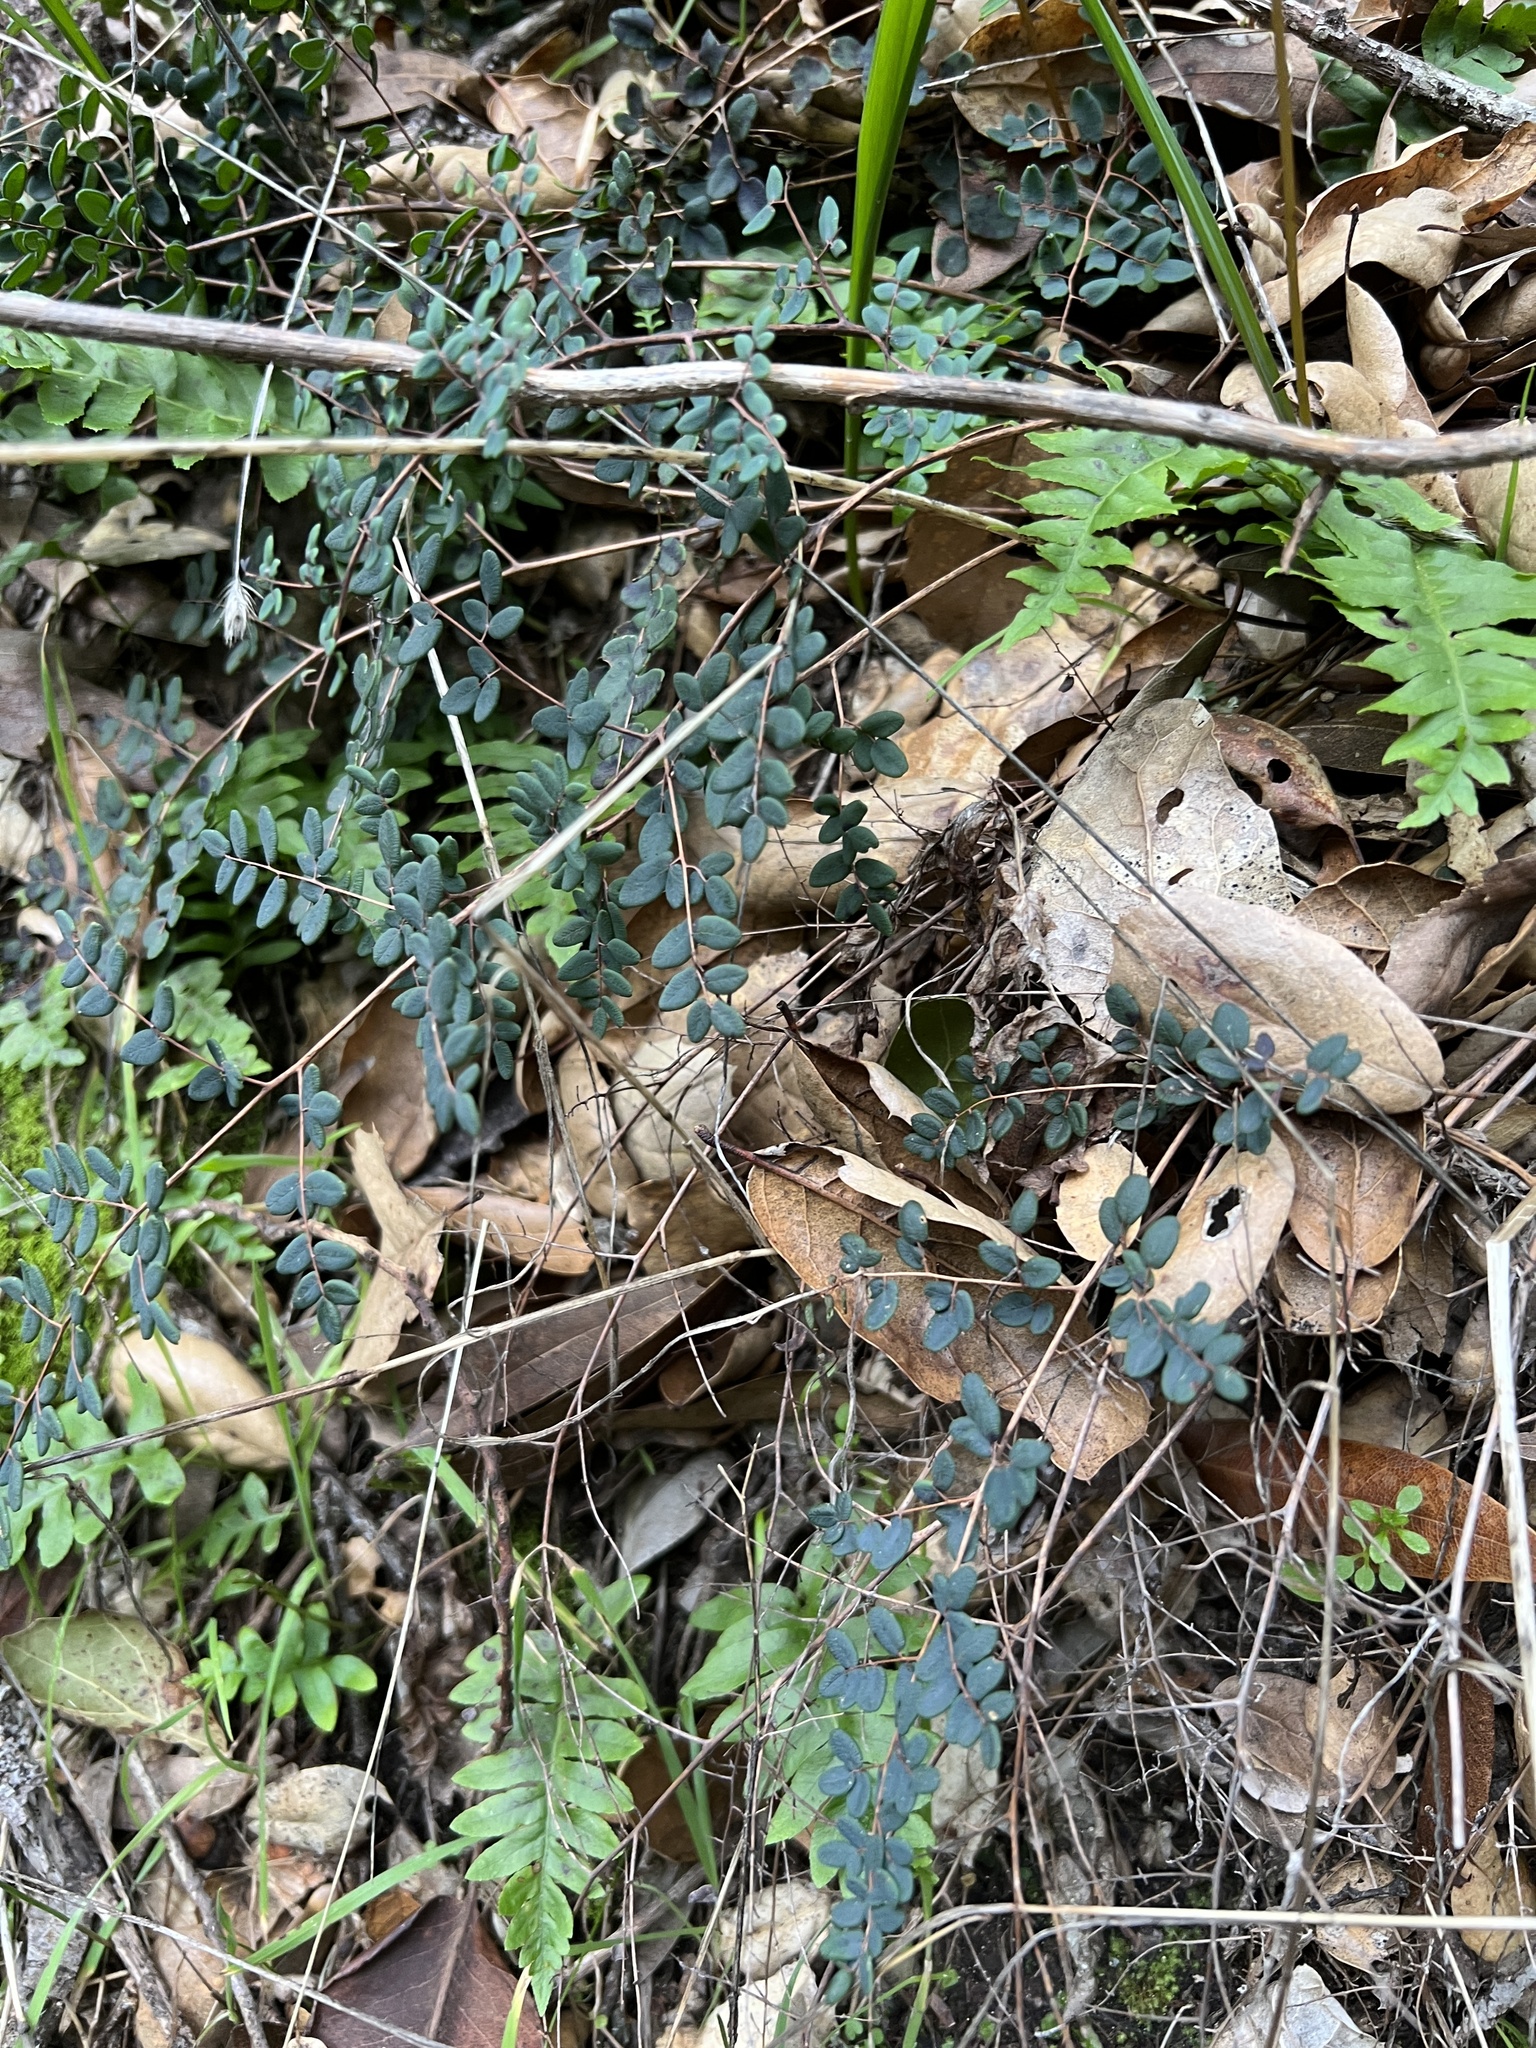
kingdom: Plantae
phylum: Tracheophyta
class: Polypodiopsida
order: Polypodiales
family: Pteridaceae
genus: Pellaea
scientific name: Pellaea andromedifolia
